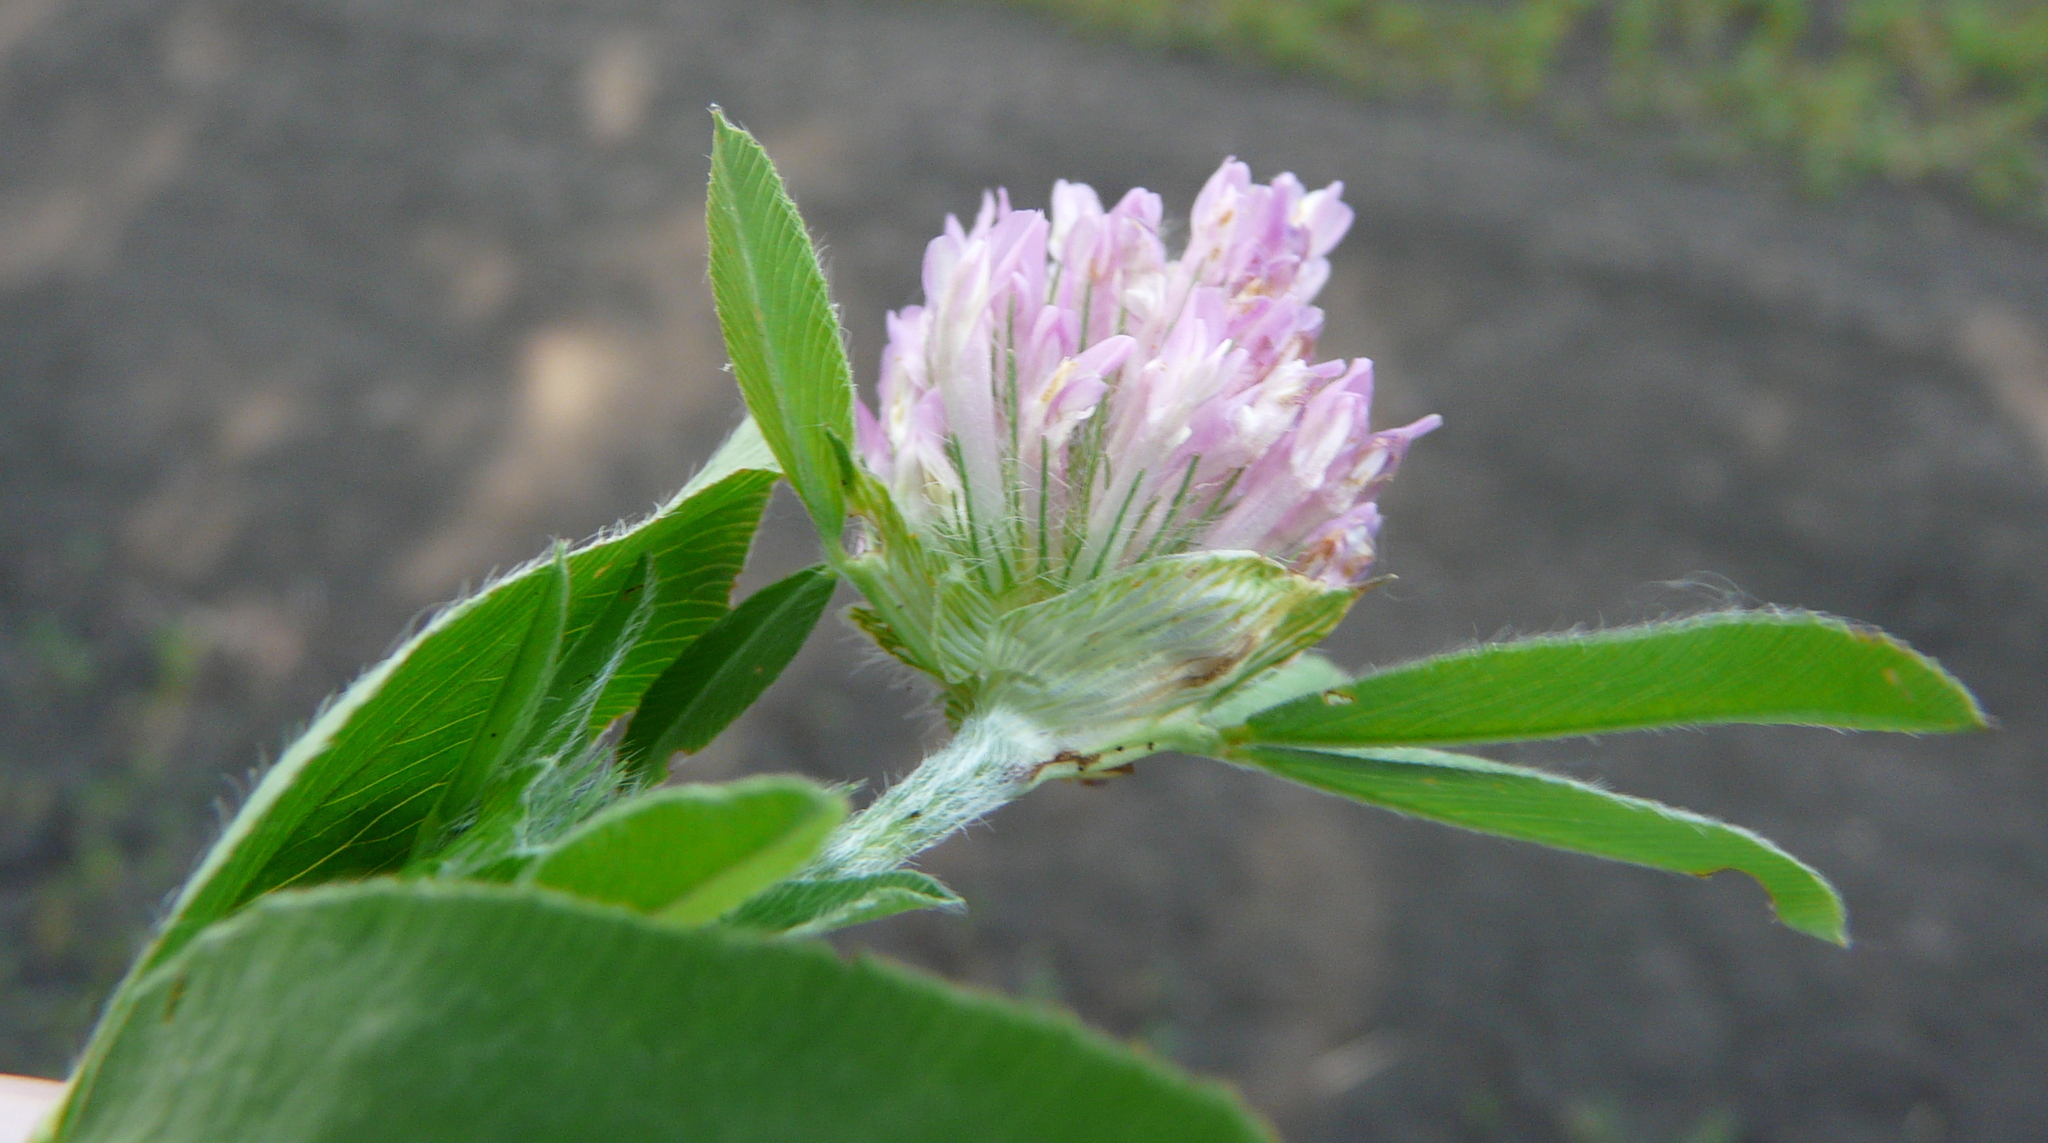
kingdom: Plantae
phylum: Tracheophyta
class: Magnoliopsida
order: Fabales
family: Fabaceae
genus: Trifolium
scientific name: Trifolium pratense
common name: Red clover
